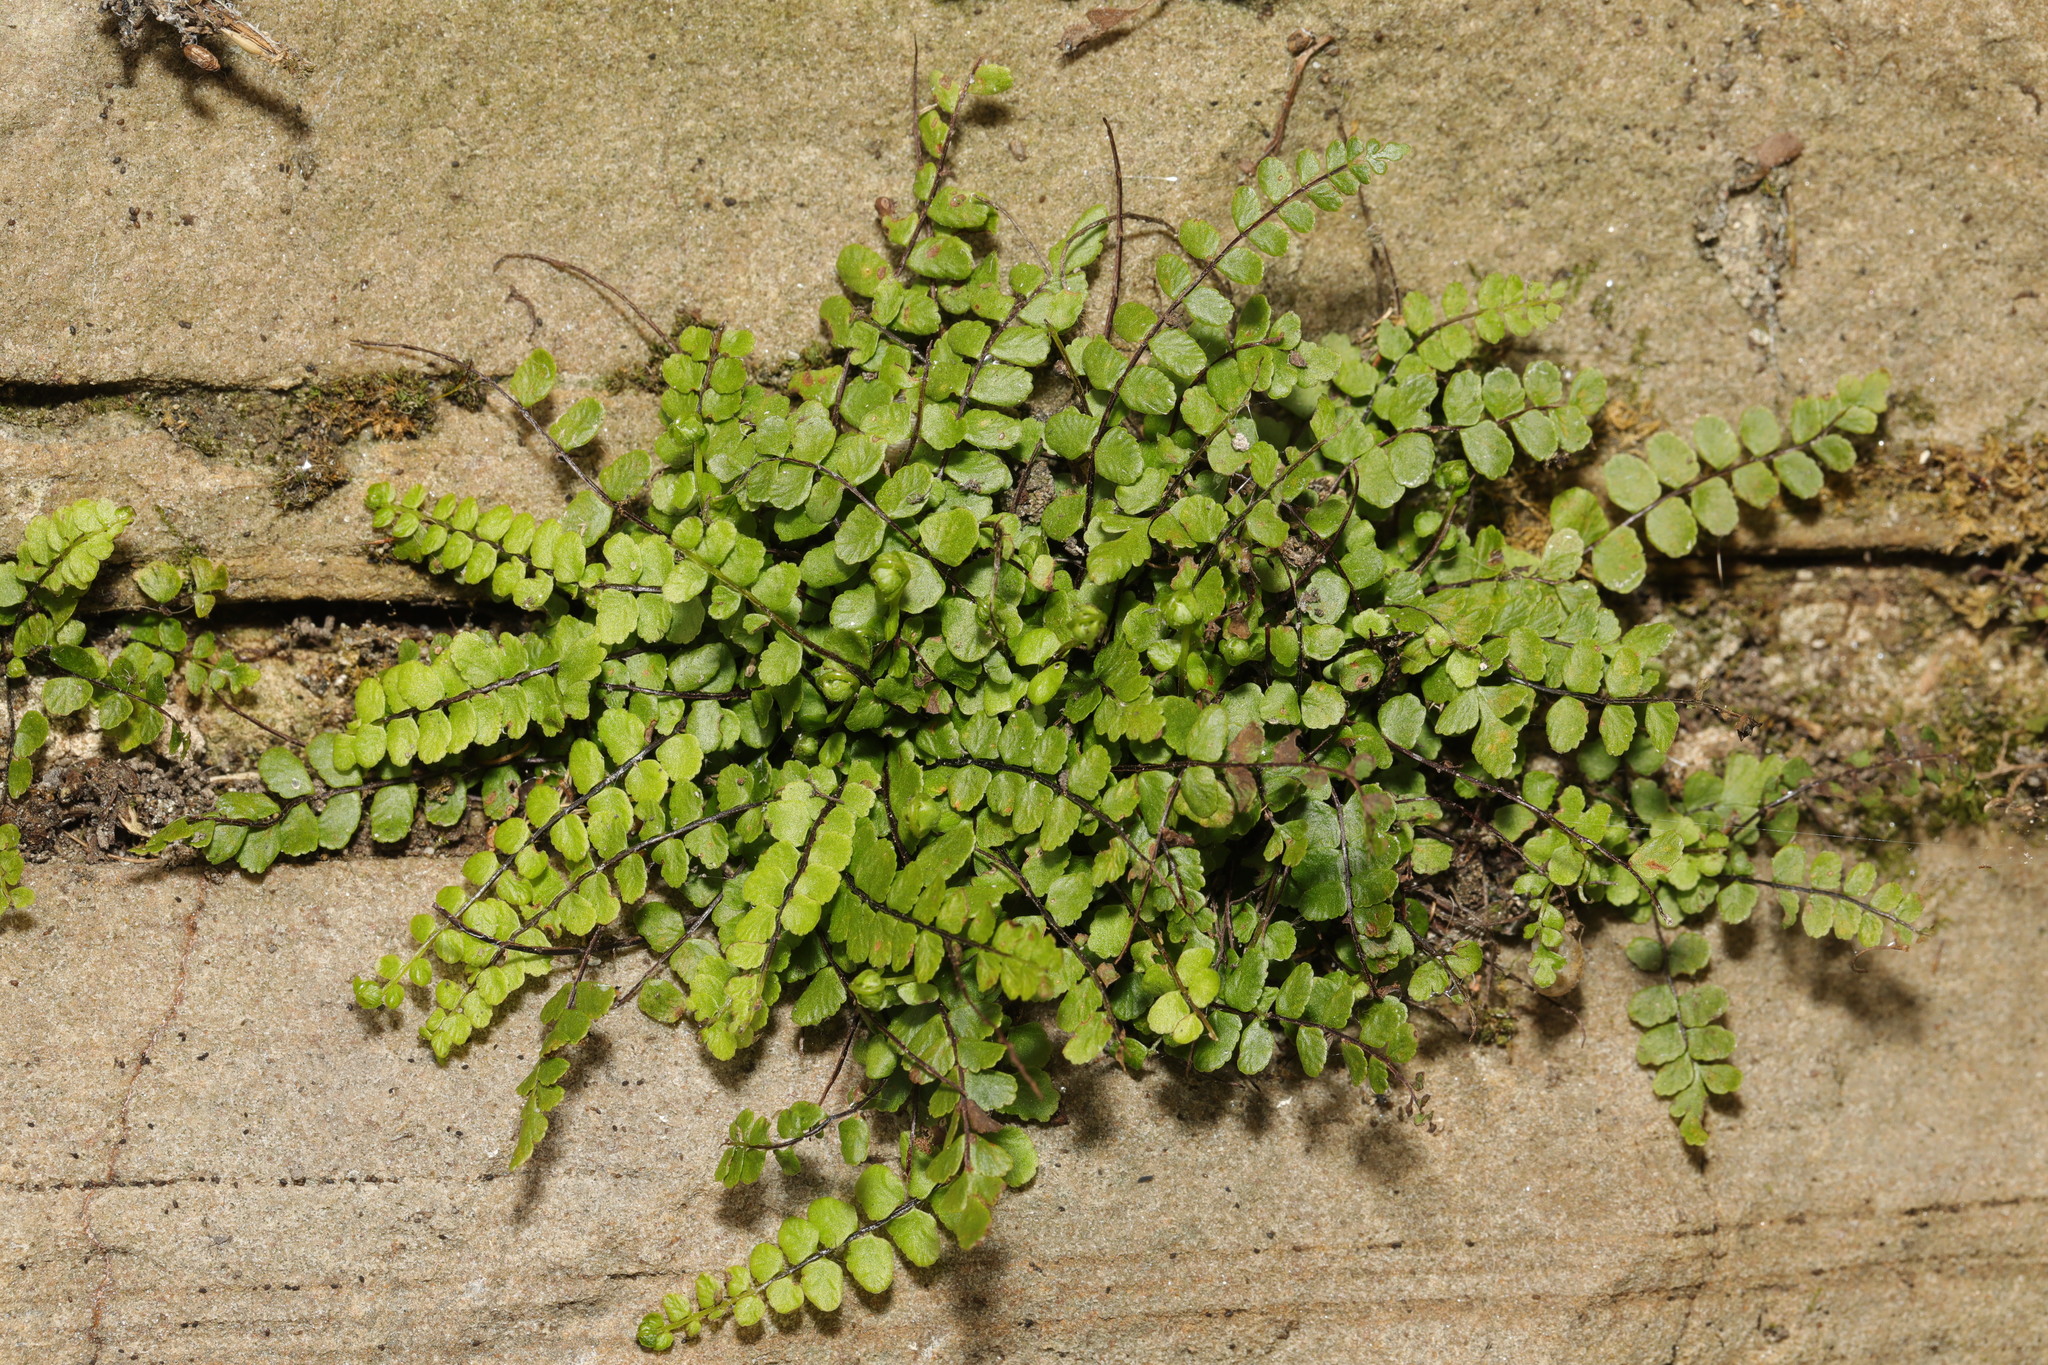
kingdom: Plantae
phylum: Tracheophyta
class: Polypodiopsida
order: Polypodiales
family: Aspleniaceae
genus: Asplenium
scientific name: Asplenium trichomanes
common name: Maidenhair spleenwort
